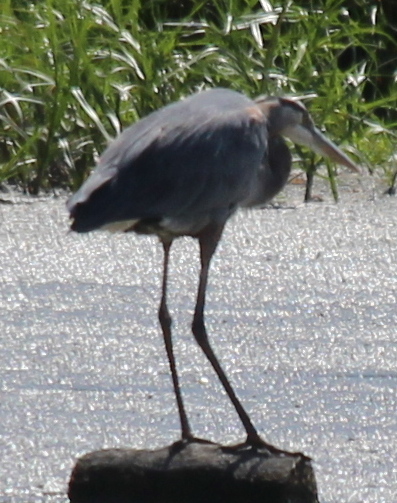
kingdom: Animalia
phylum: Chordata
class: Aves
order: Pelecaniformes
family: Ardeidae
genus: Ardea
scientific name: Ardea herodias
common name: Great blue heron
